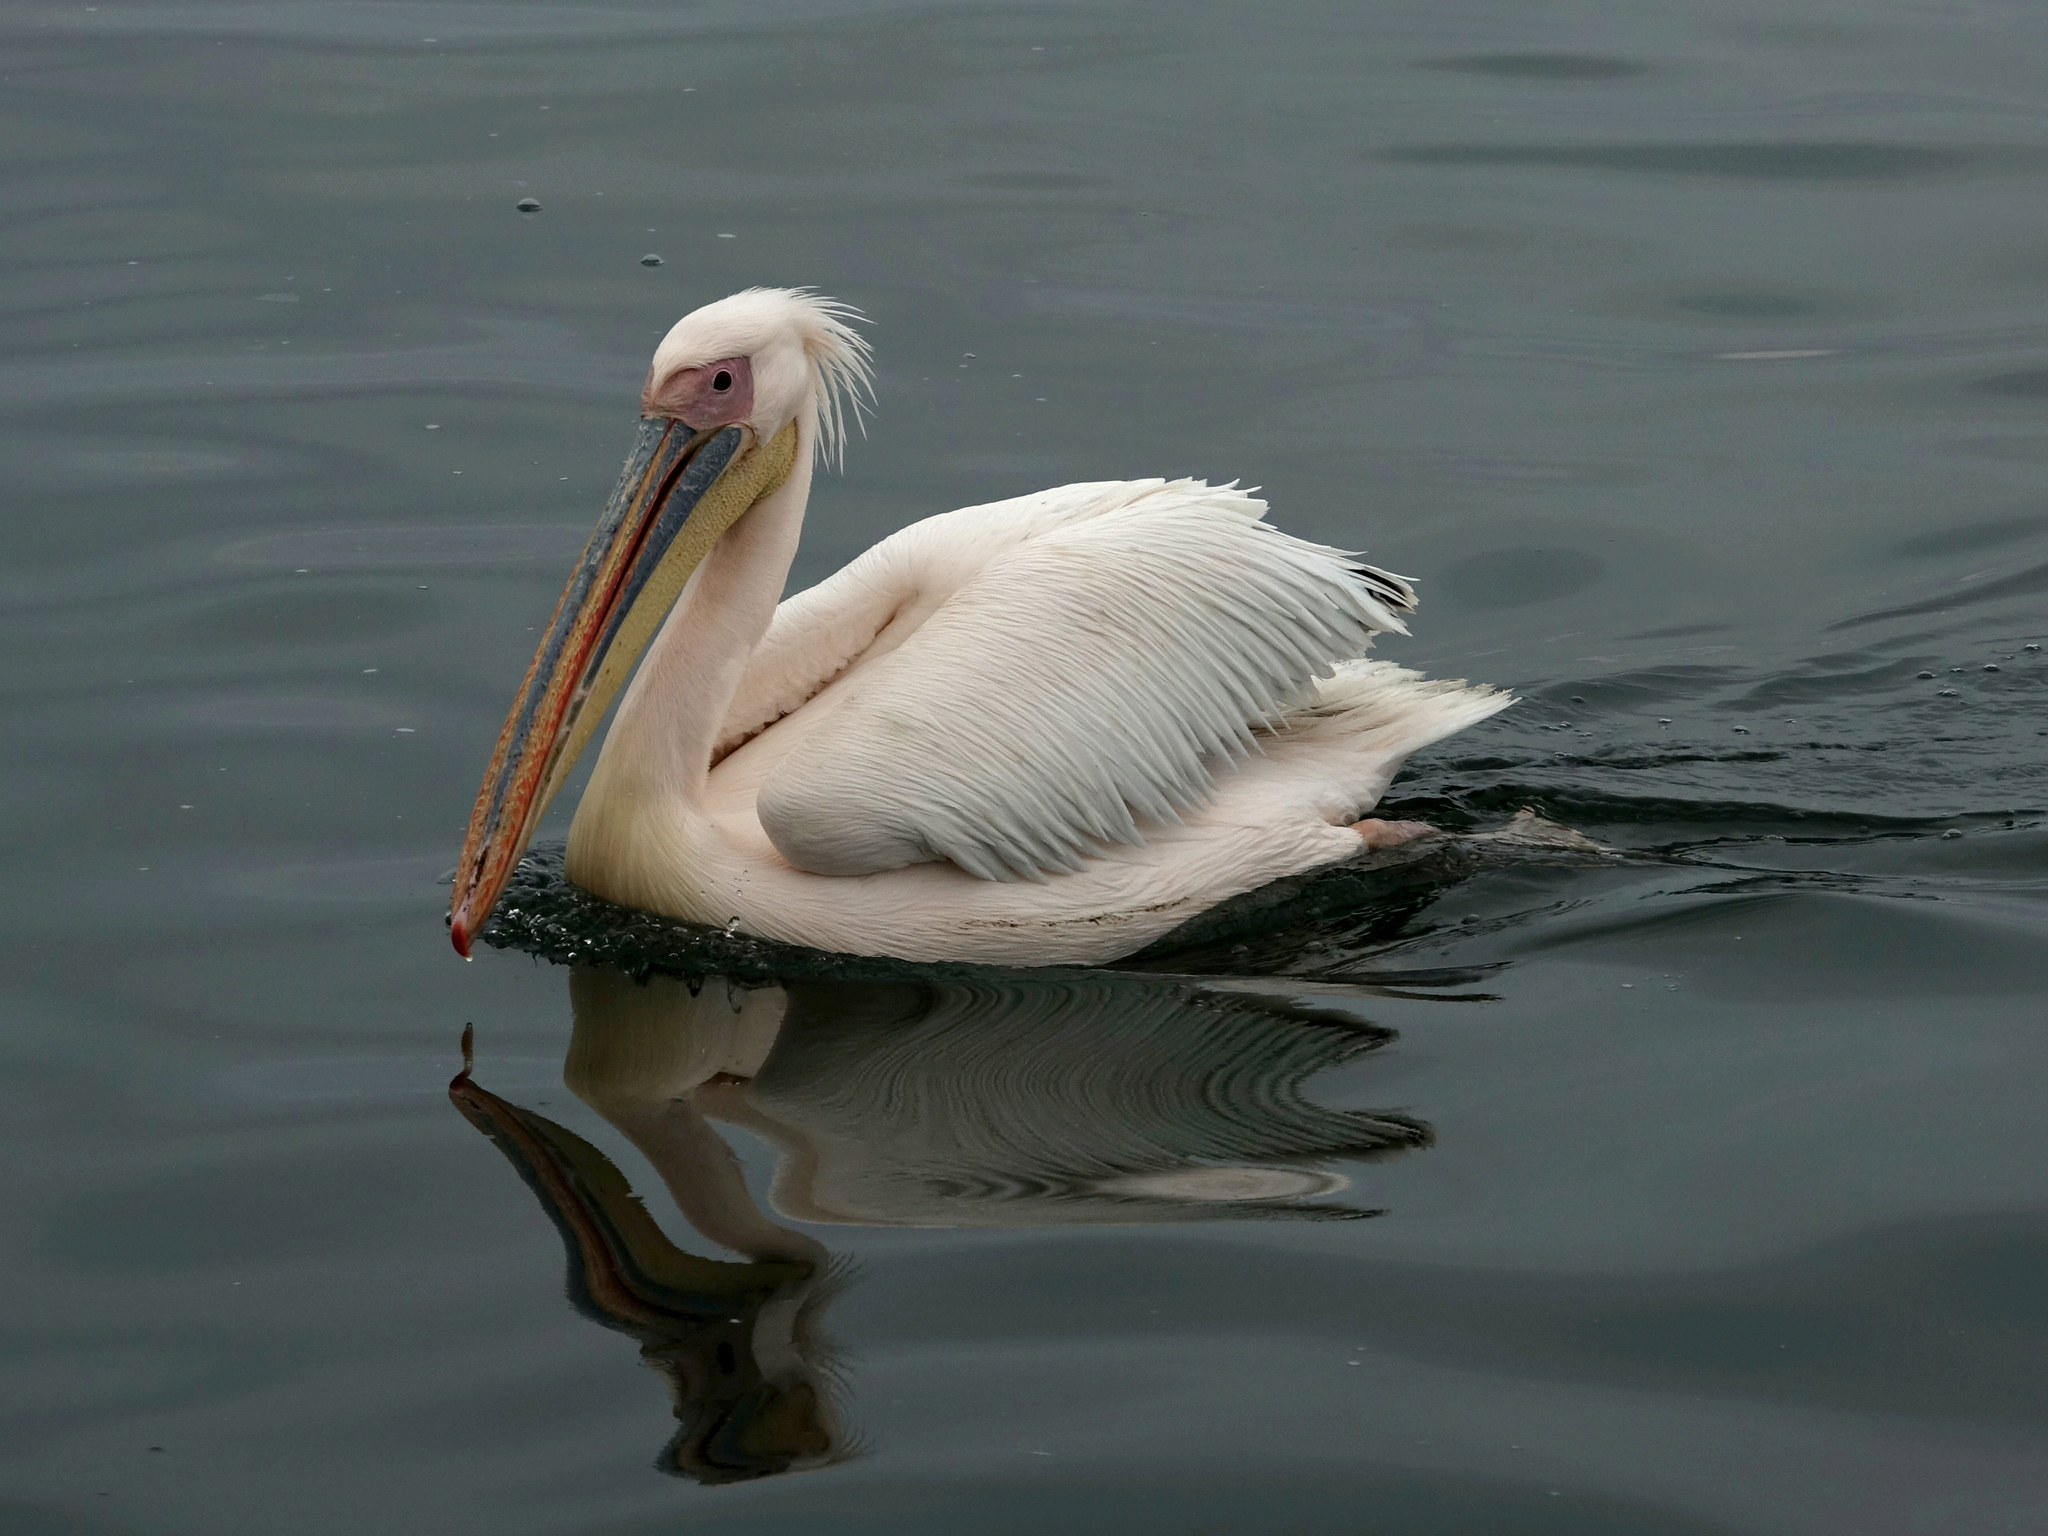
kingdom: Animalia
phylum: Chordata
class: Aves
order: Pelecaniformes
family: Pelecanidae
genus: Pelecanus
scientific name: Pelecanus onocrotalus
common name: Great white pelican
